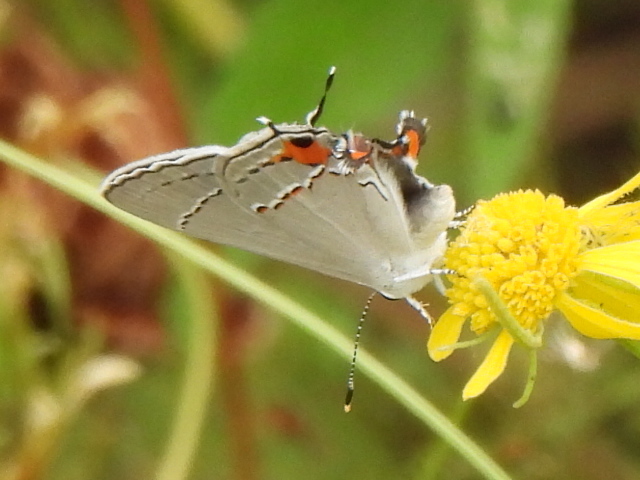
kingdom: Animalia
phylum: Arthropoda
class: Insecta
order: Lepidoptera
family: Lycaenidae
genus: Strymon
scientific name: Strymon melinus
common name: Gray hairstreak
